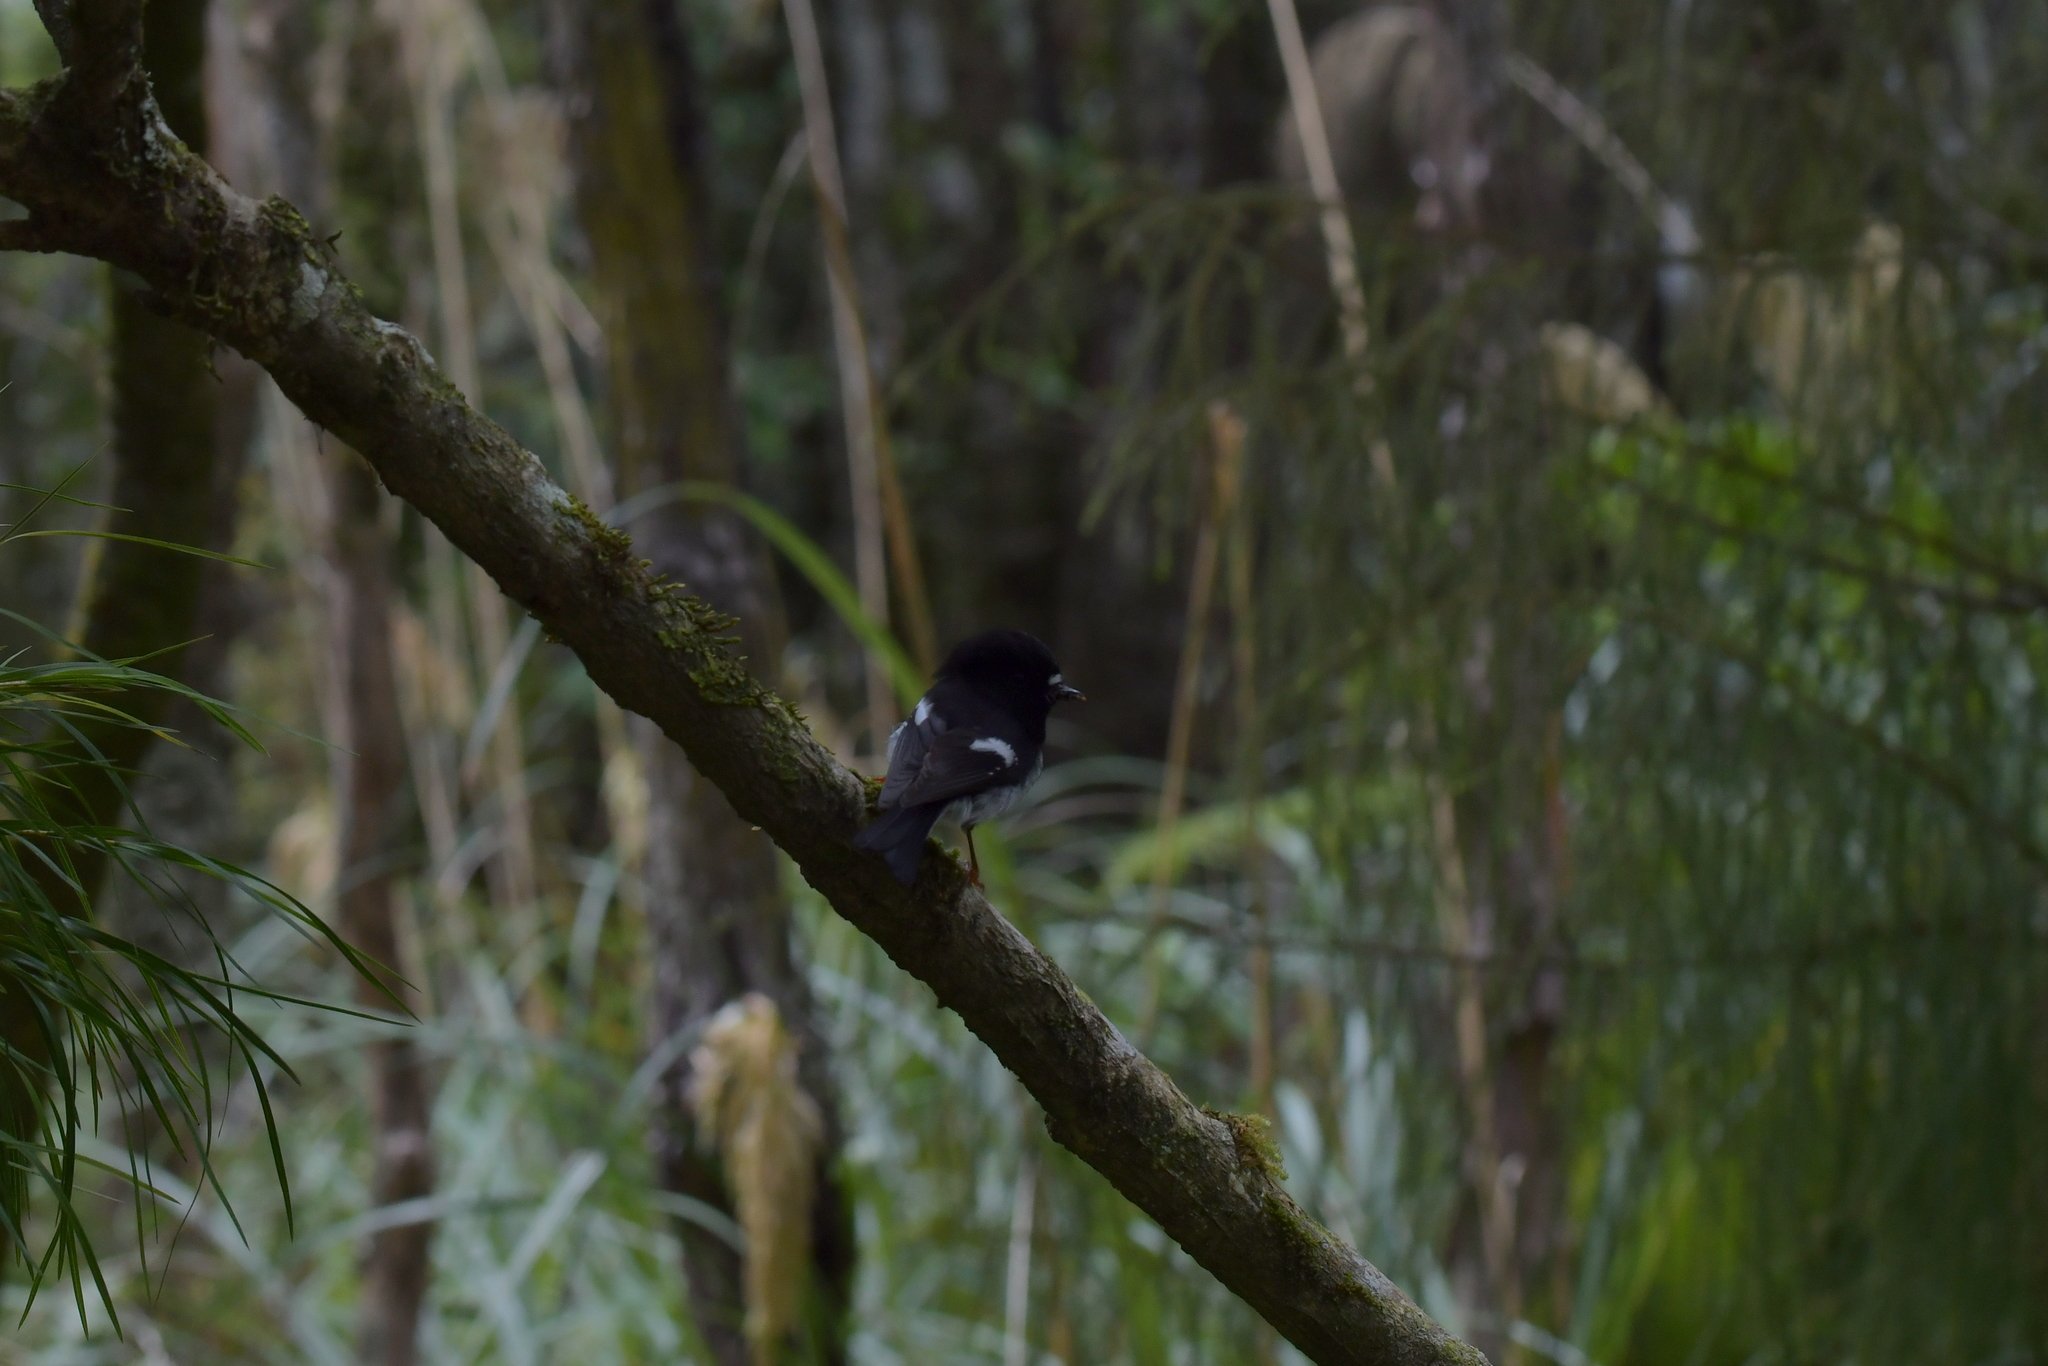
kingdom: Animalia
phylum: Chordata
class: Aves
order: Passeriformes
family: Petroicidae
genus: Petroica
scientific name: Petroica macrocephala
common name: Tomtit
